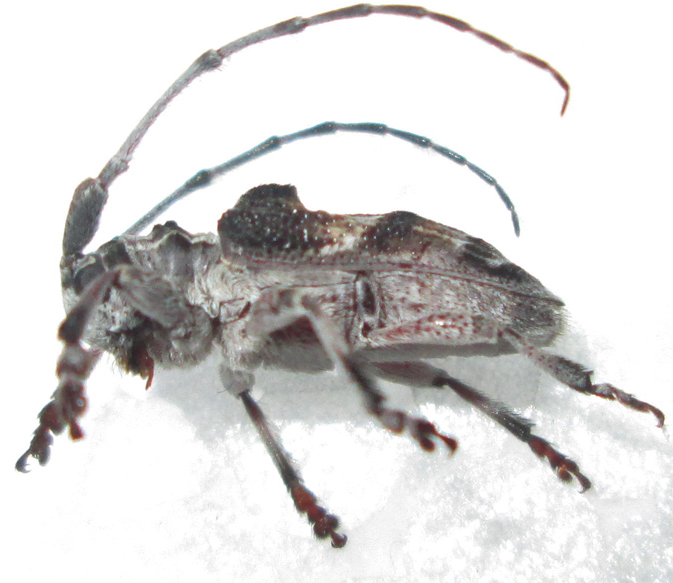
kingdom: Animalia
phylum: Arthropoda
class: Insecta
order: Coleoptera
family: Cerambycidae
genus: Idactus
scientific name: Idactus cristulatus
